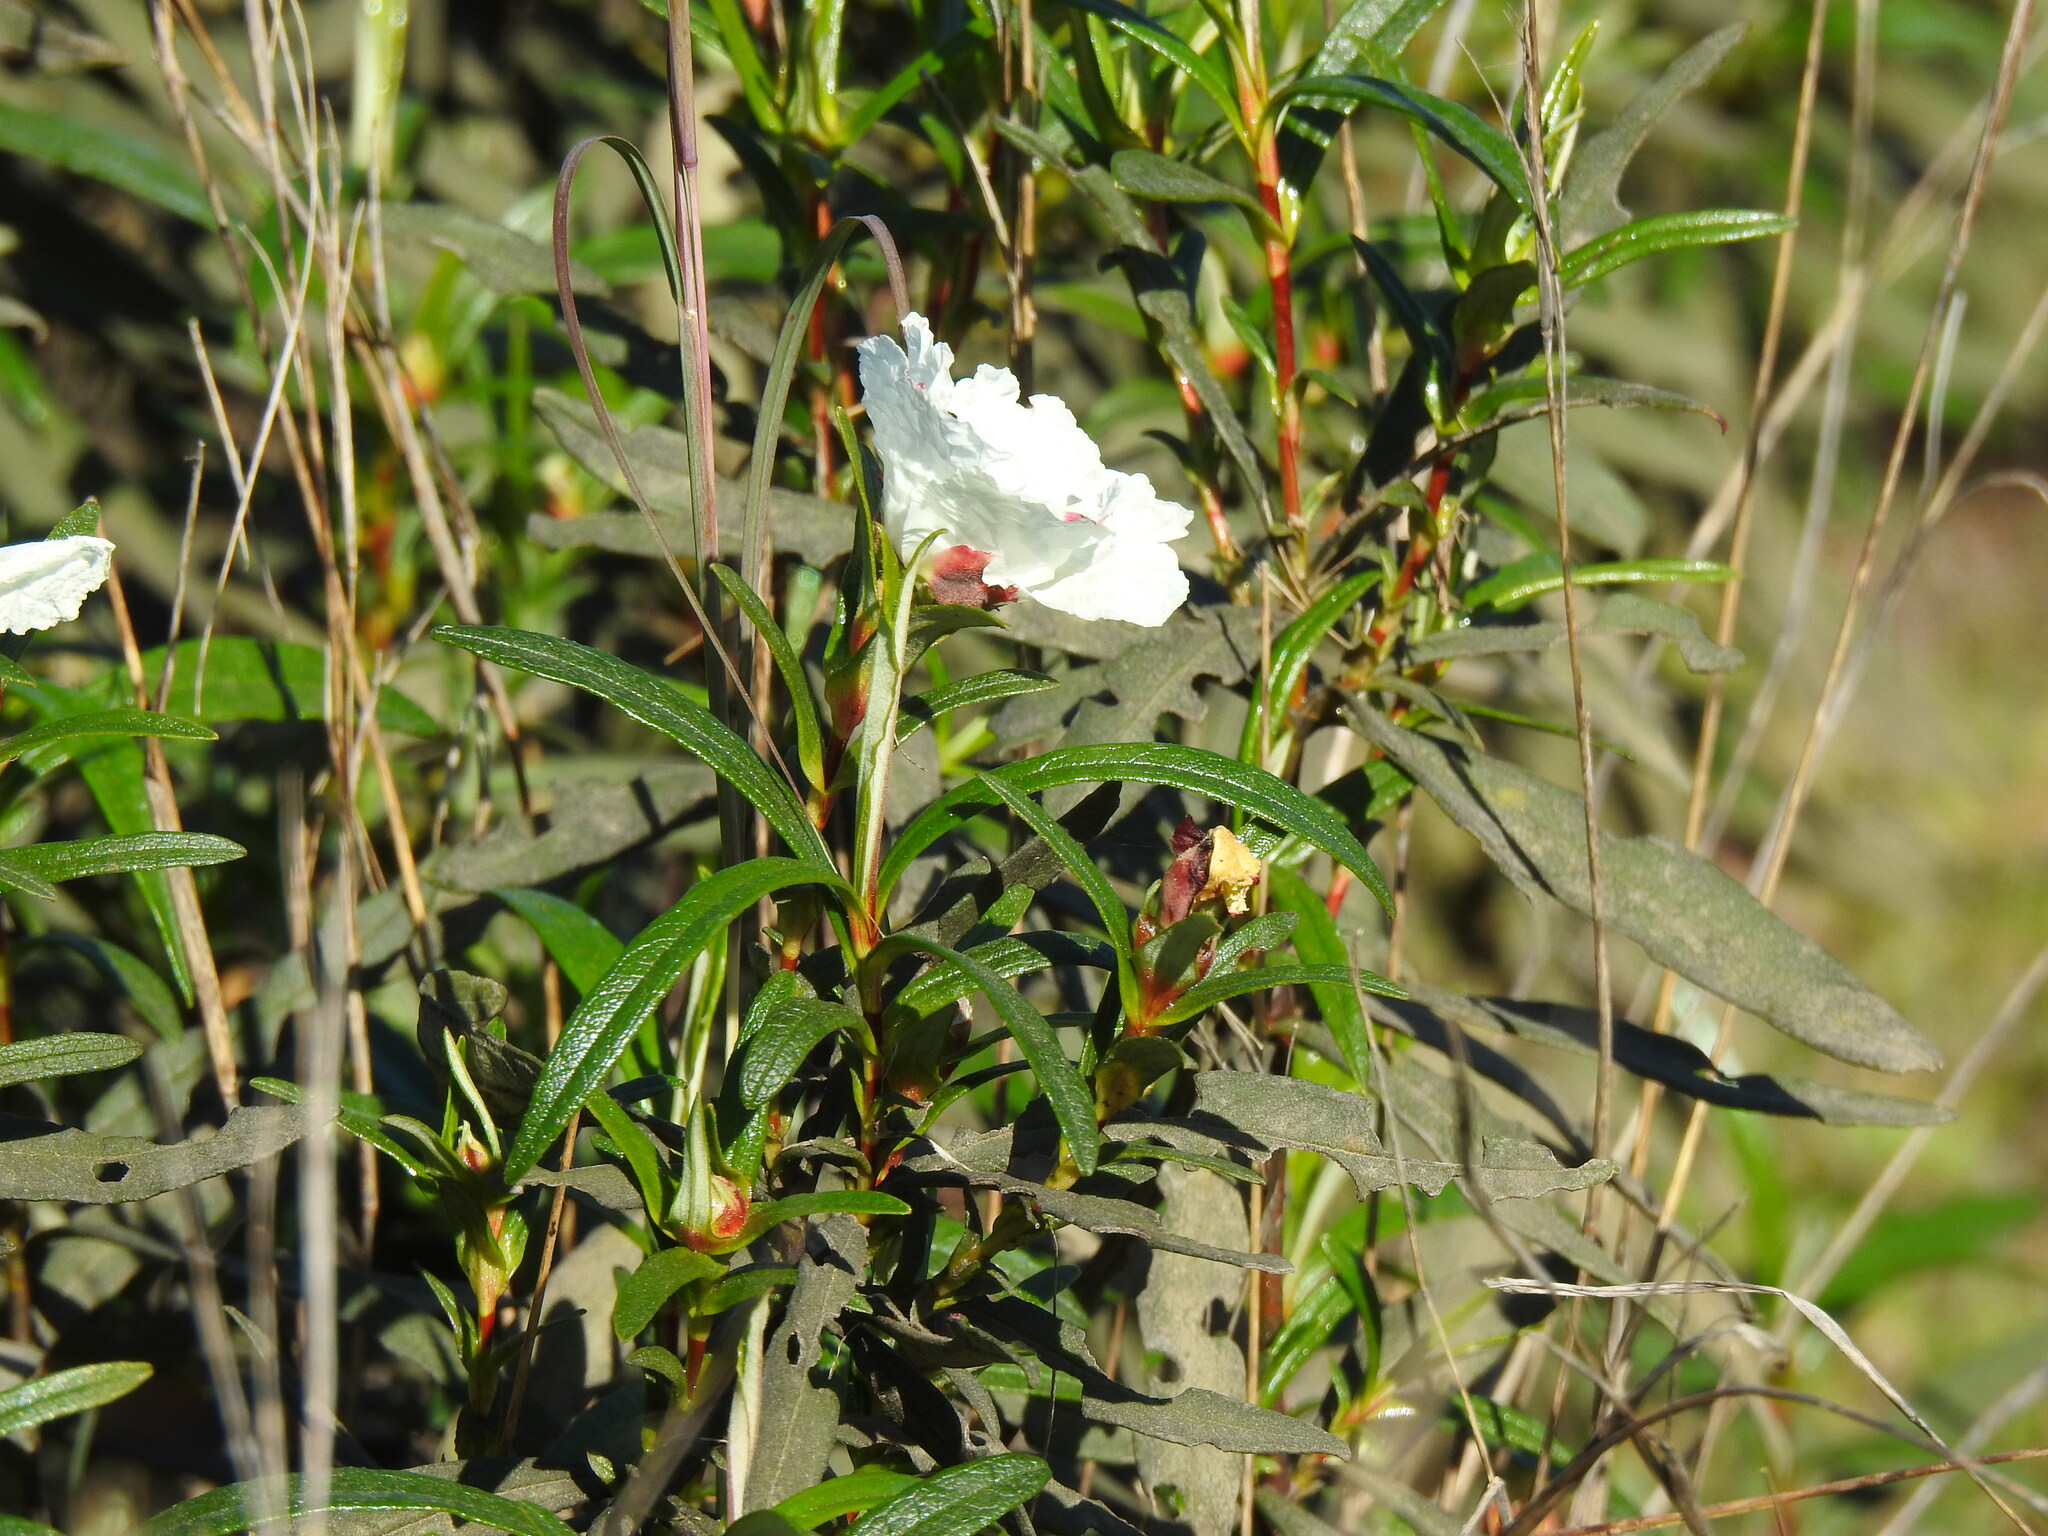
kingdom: Plantae
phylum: Tracheophyta
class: Magnoliopsida
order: Malvales
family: Cistaceae
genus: Cistus
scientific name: Cistus ladanifer
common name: Common gum cistus
